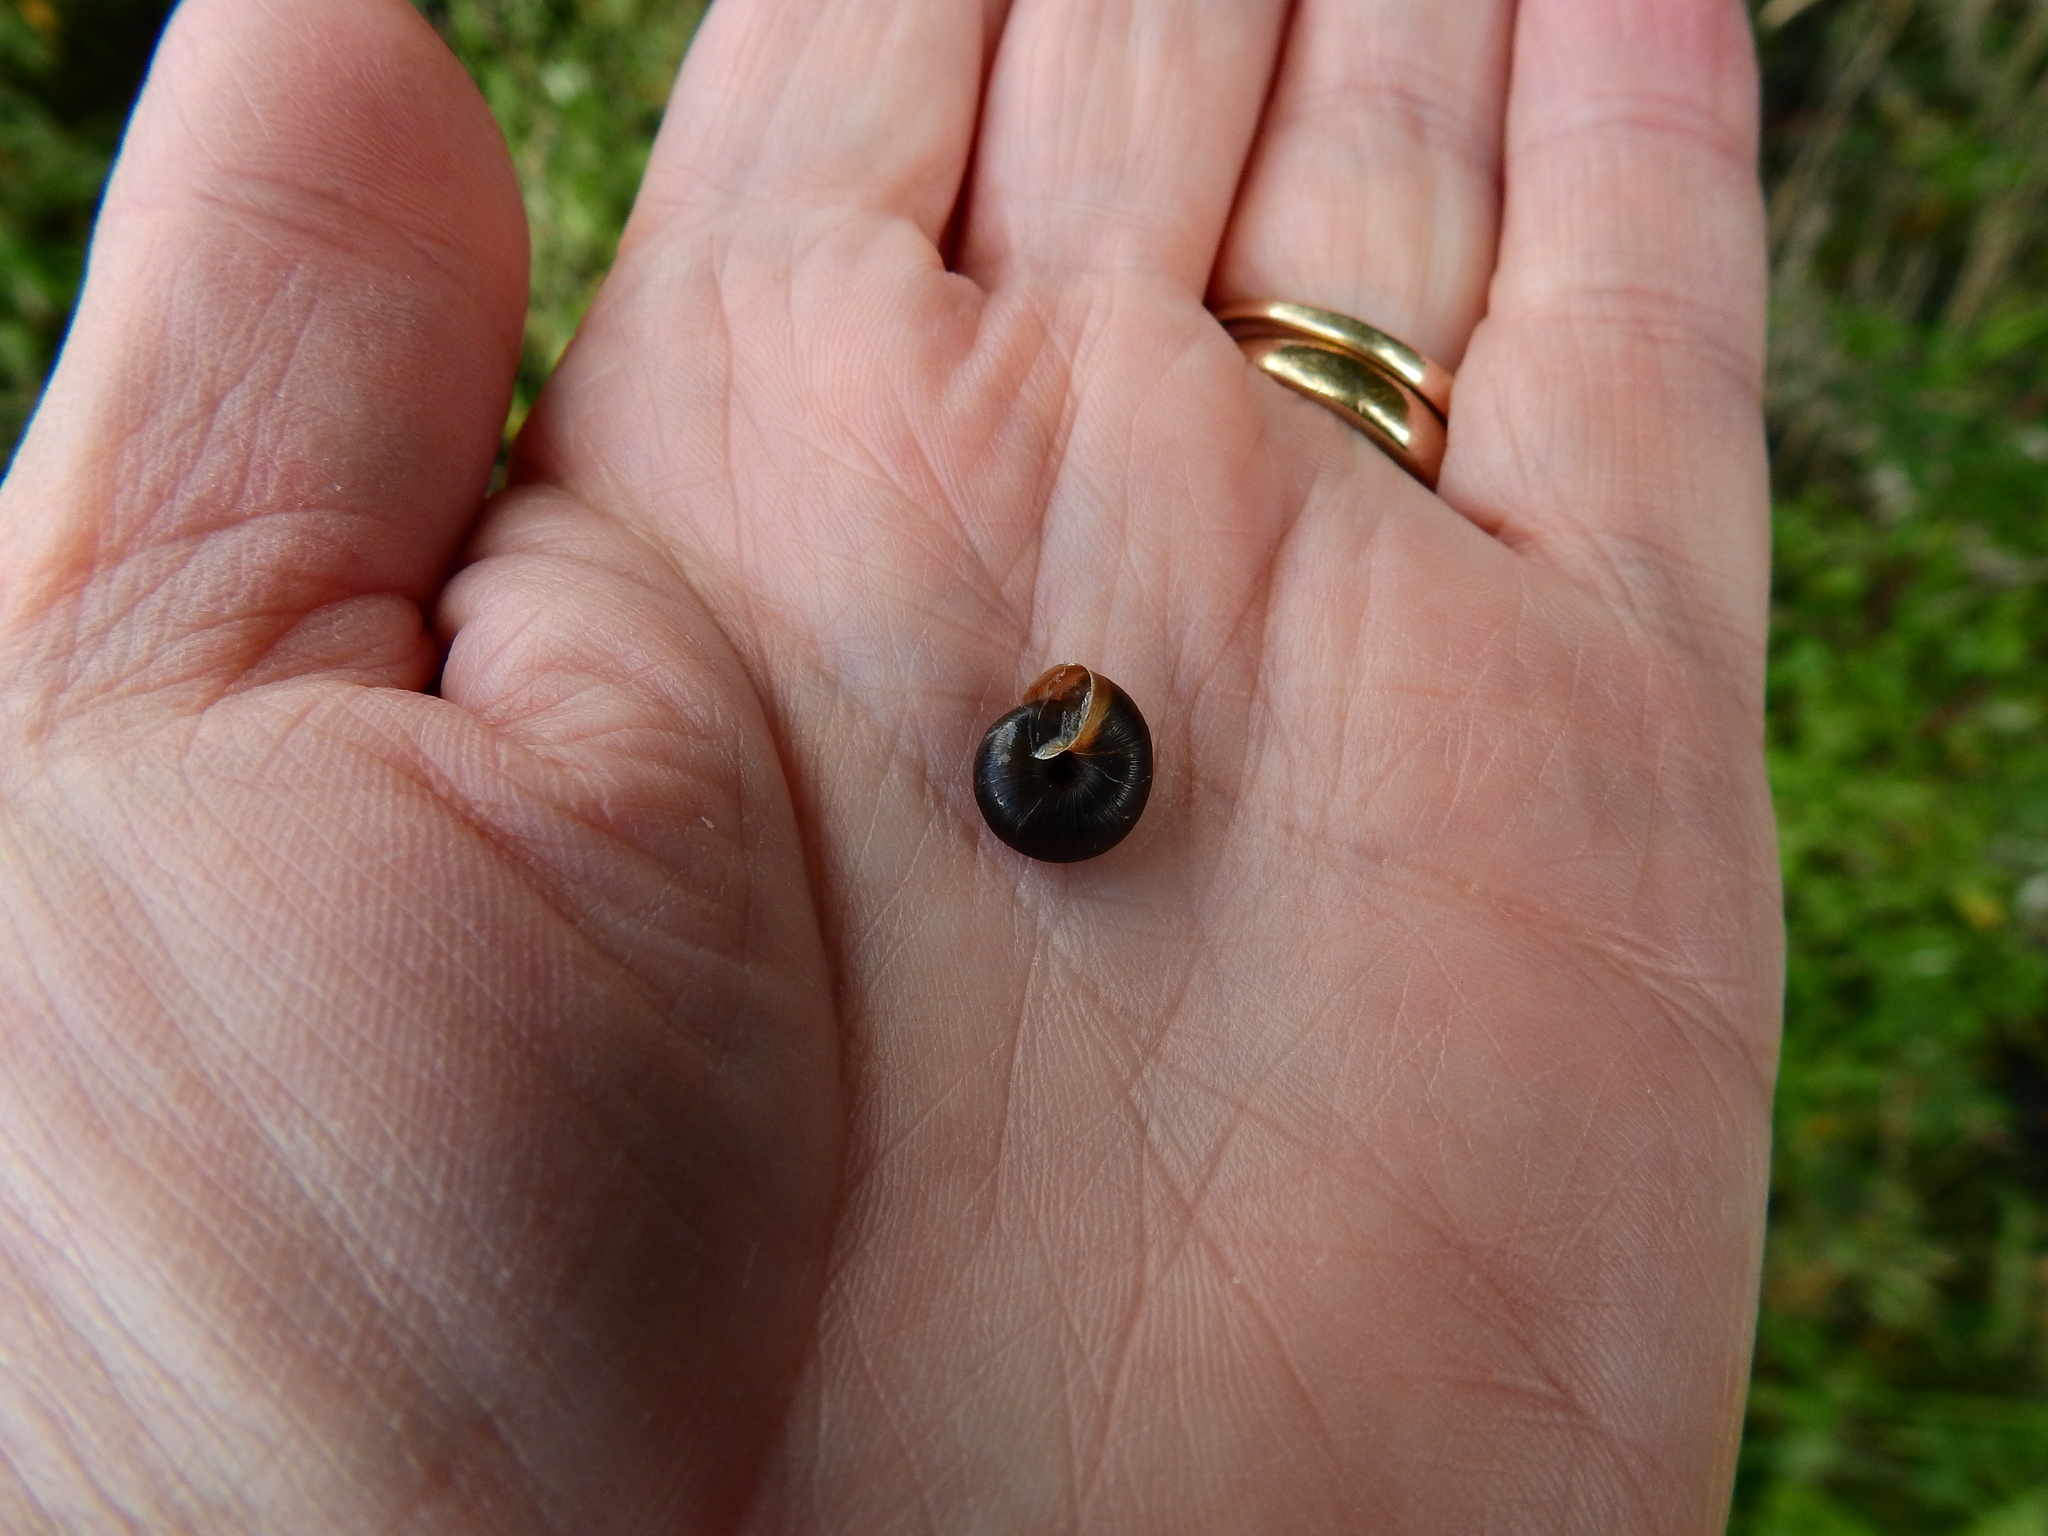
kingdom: Animalia
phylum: Mollusca
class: Gastropoda
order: Stylommatophora
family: Hygromiidae
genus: Trochulus
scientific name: Trochulus striolatus
